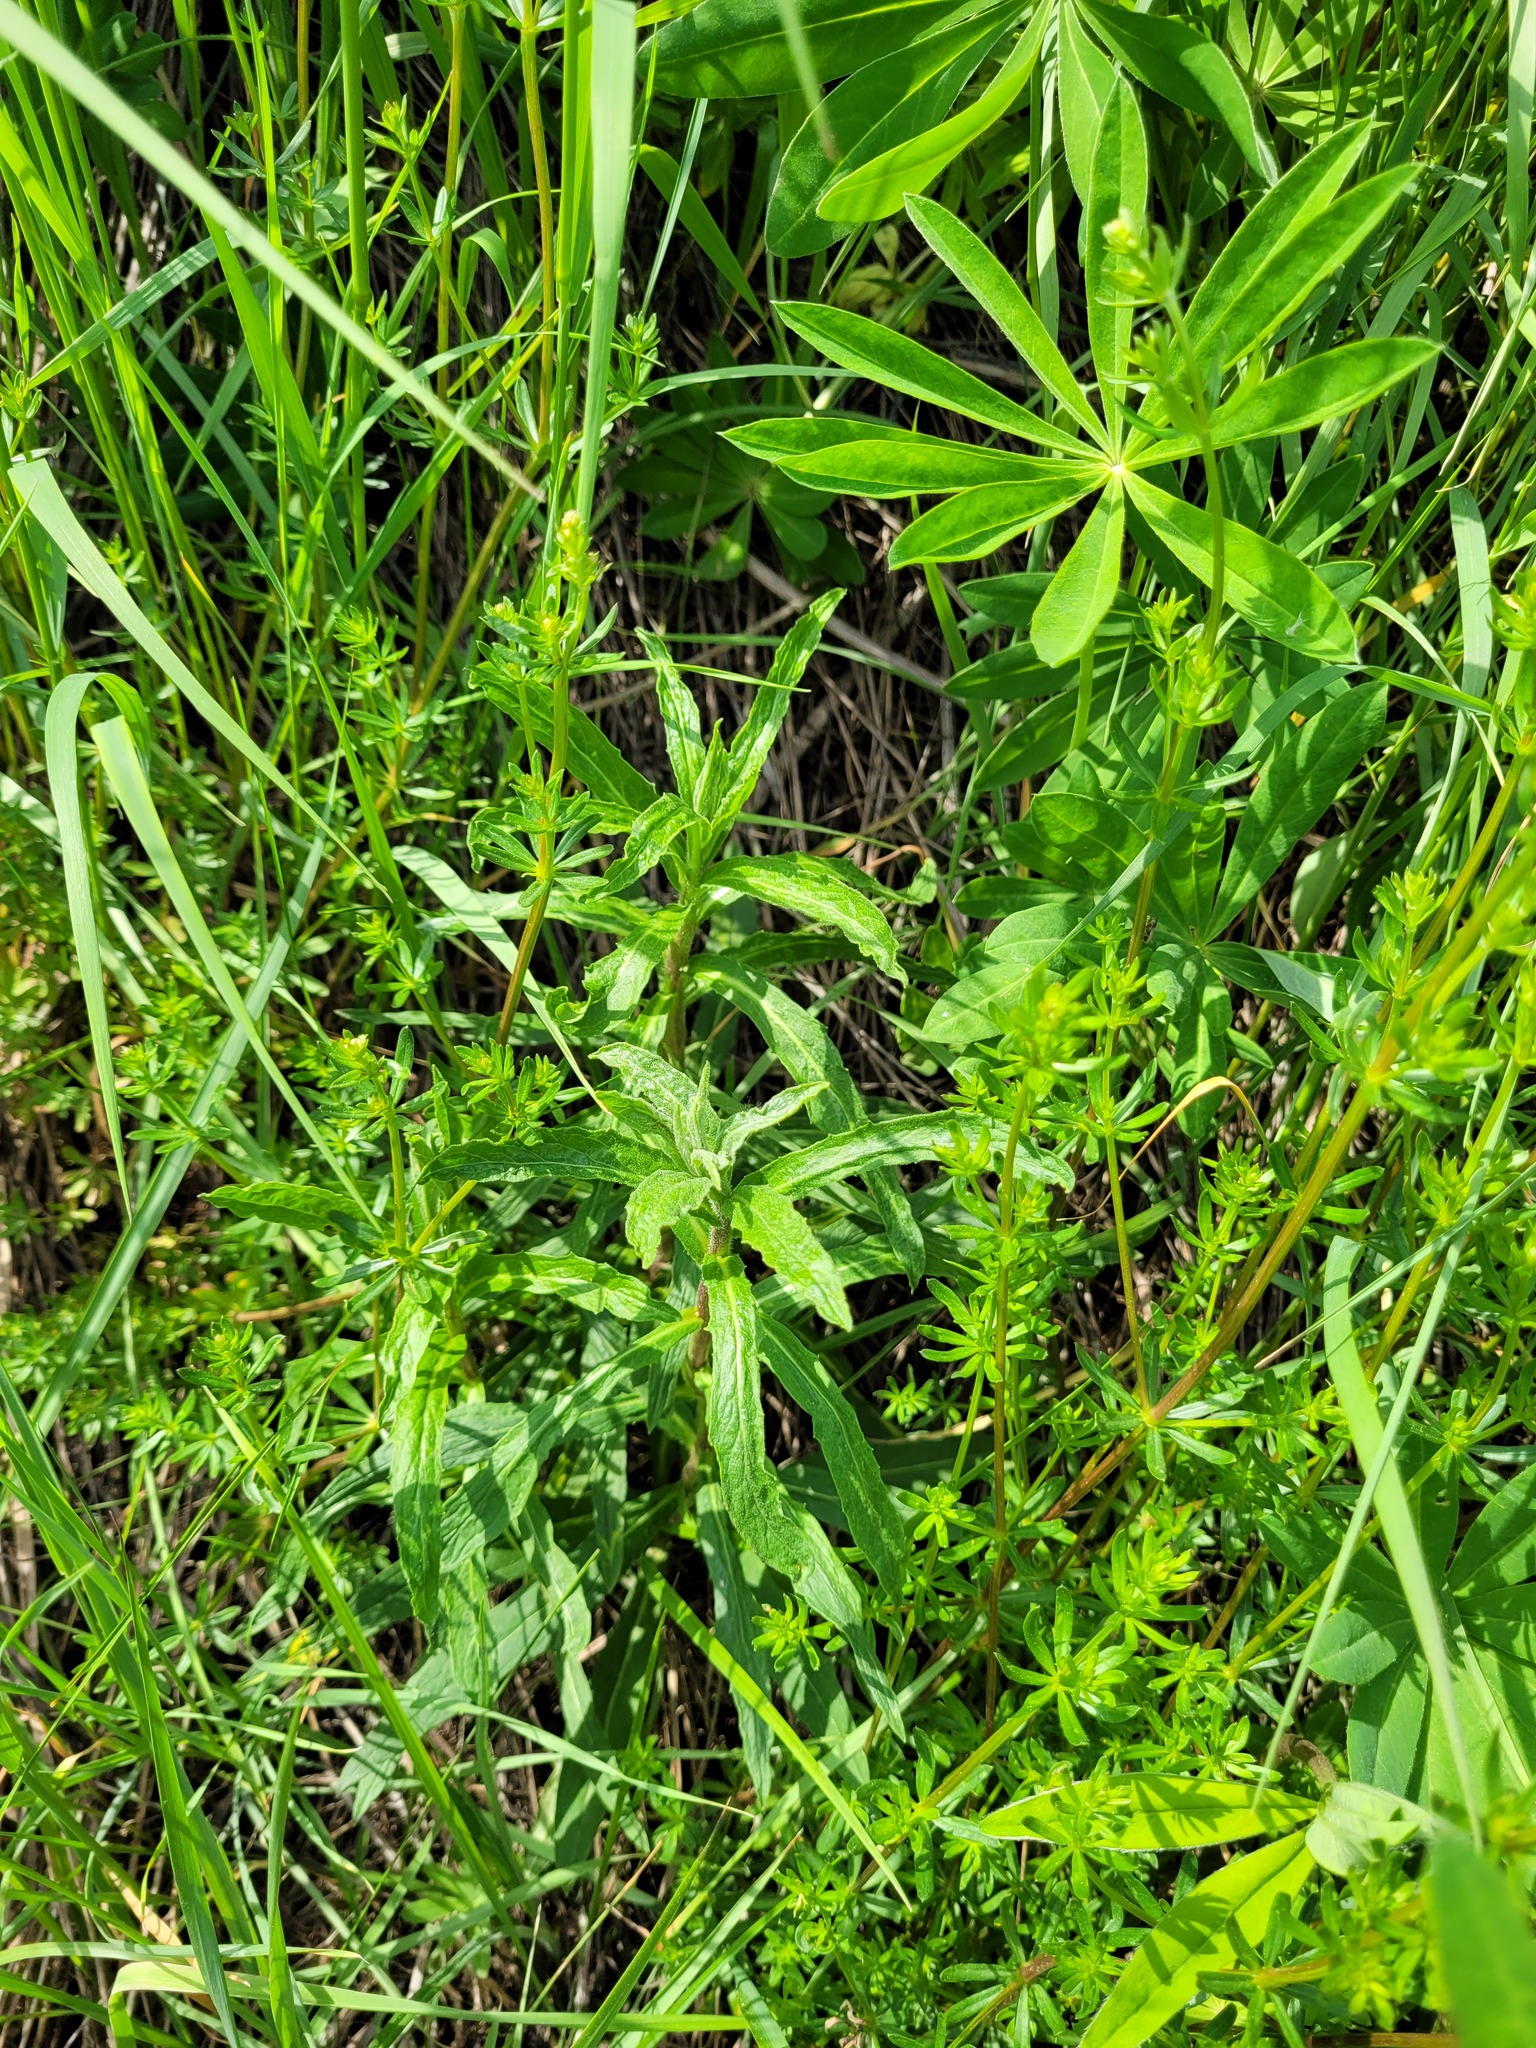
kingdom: Plantae
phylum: Tracheophyta
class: Magnoliopsida
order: Asterales
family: Asteraceae
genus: Hieracium
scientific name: Hieracium umbellatum
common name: Northern hawkweed
